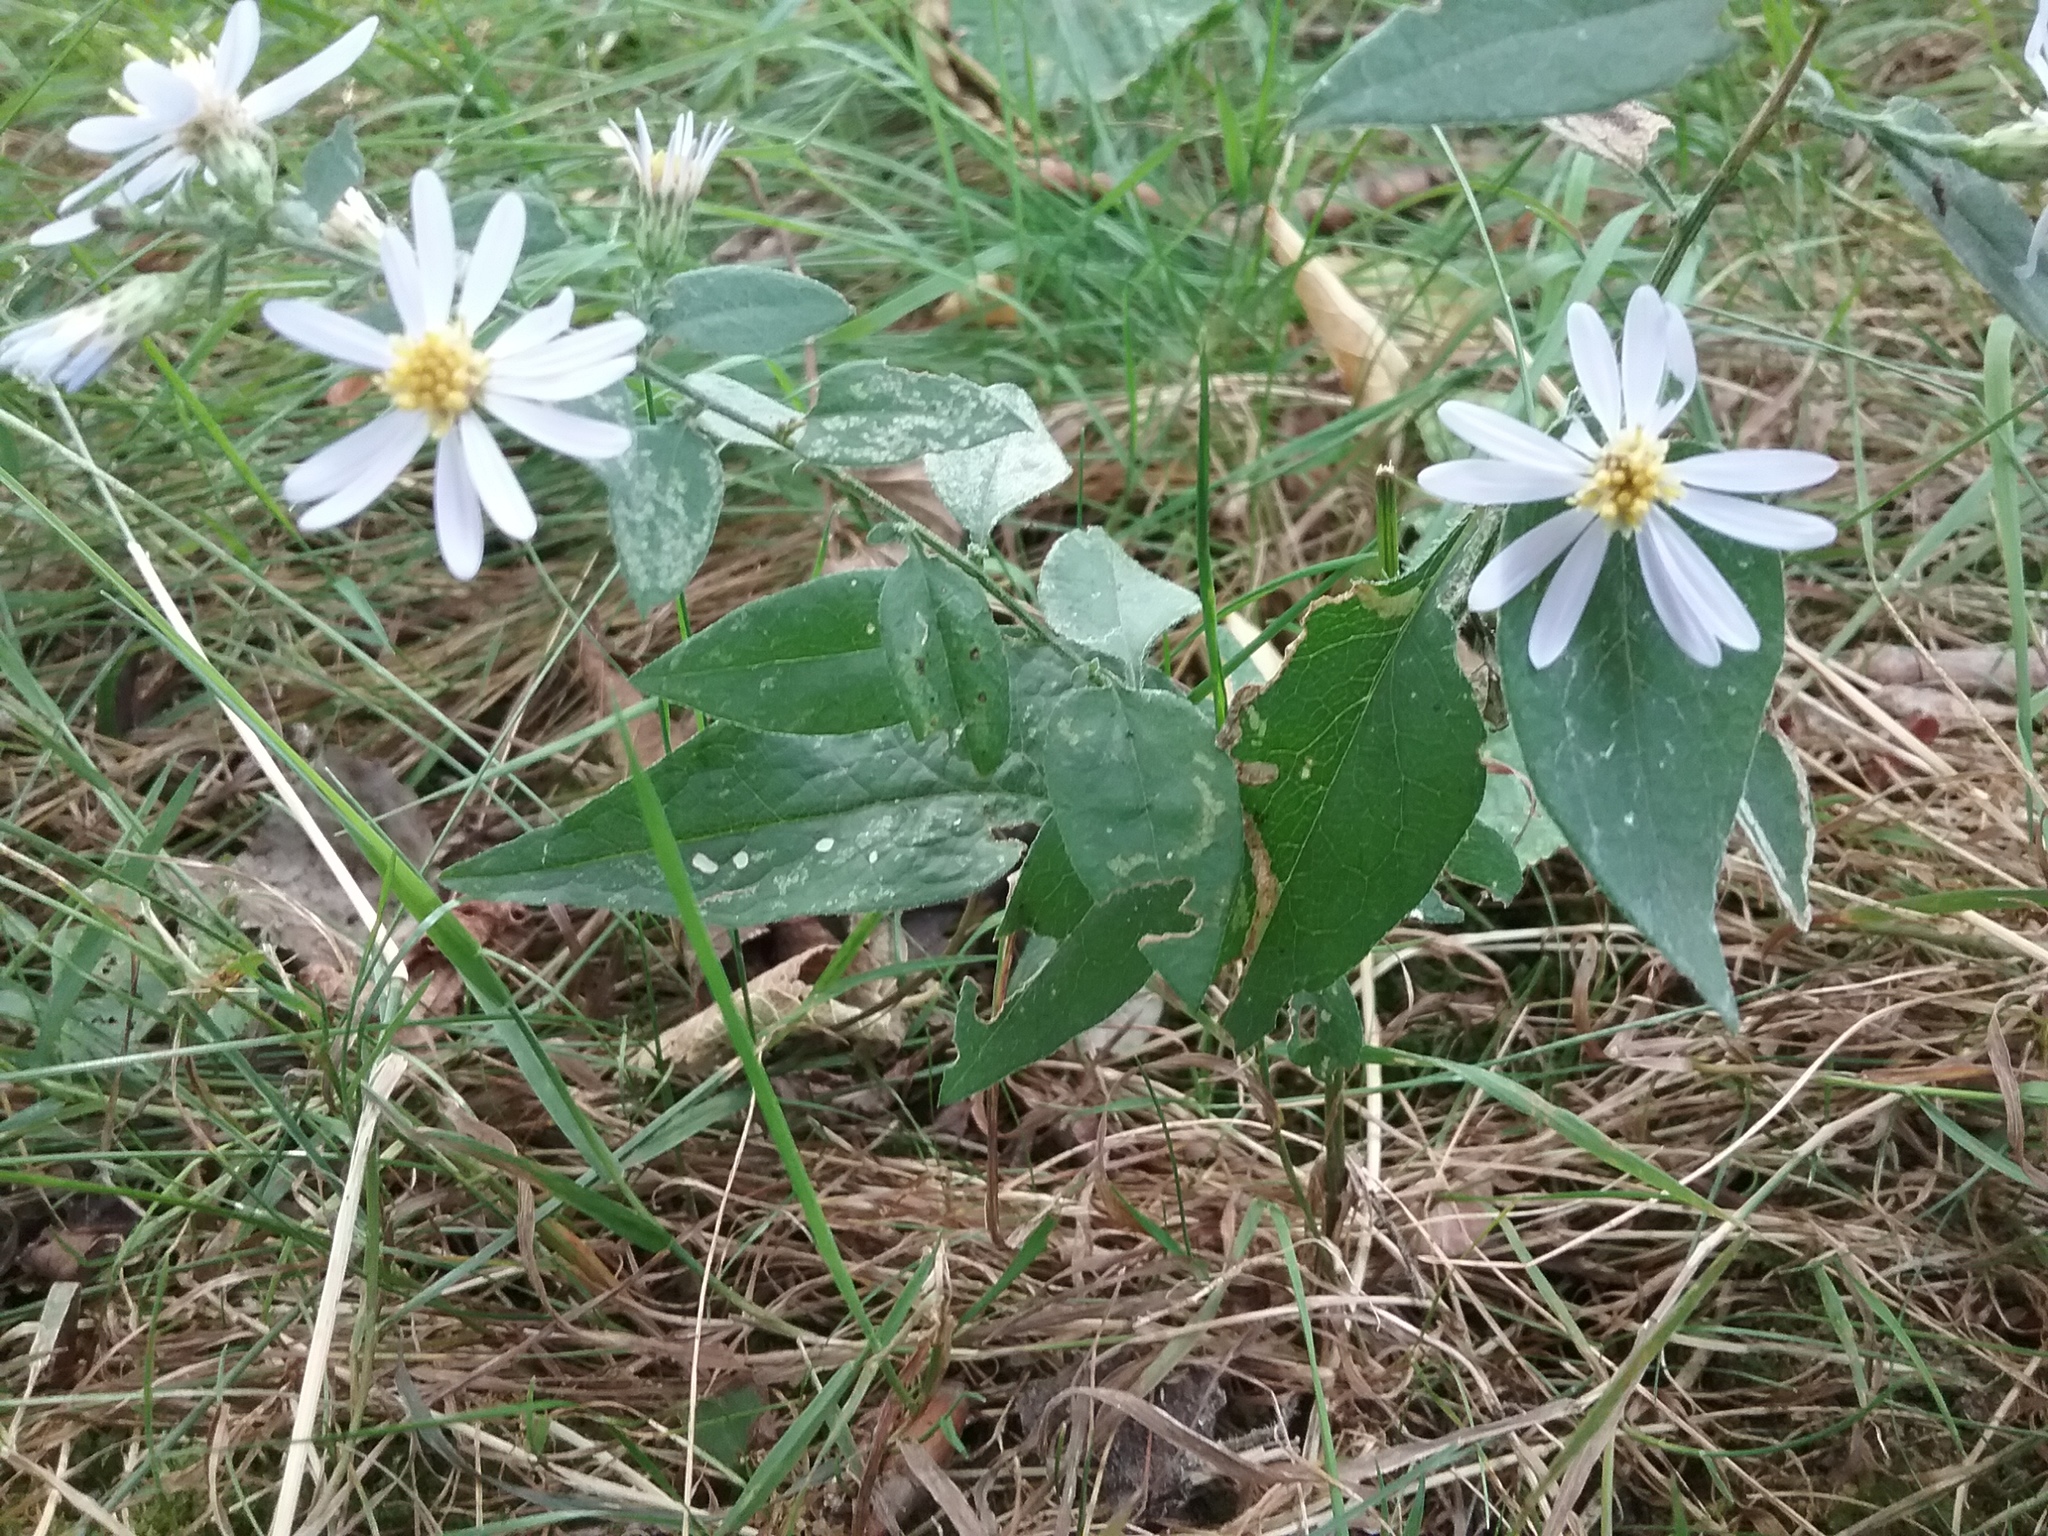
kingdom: Plantae
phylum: Tracheophyta
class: Magnoliopsida
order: Asterales
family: Asteraceae
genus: Symphyotrichum
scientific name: Symphyotrichum shortii
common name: Short's aster
